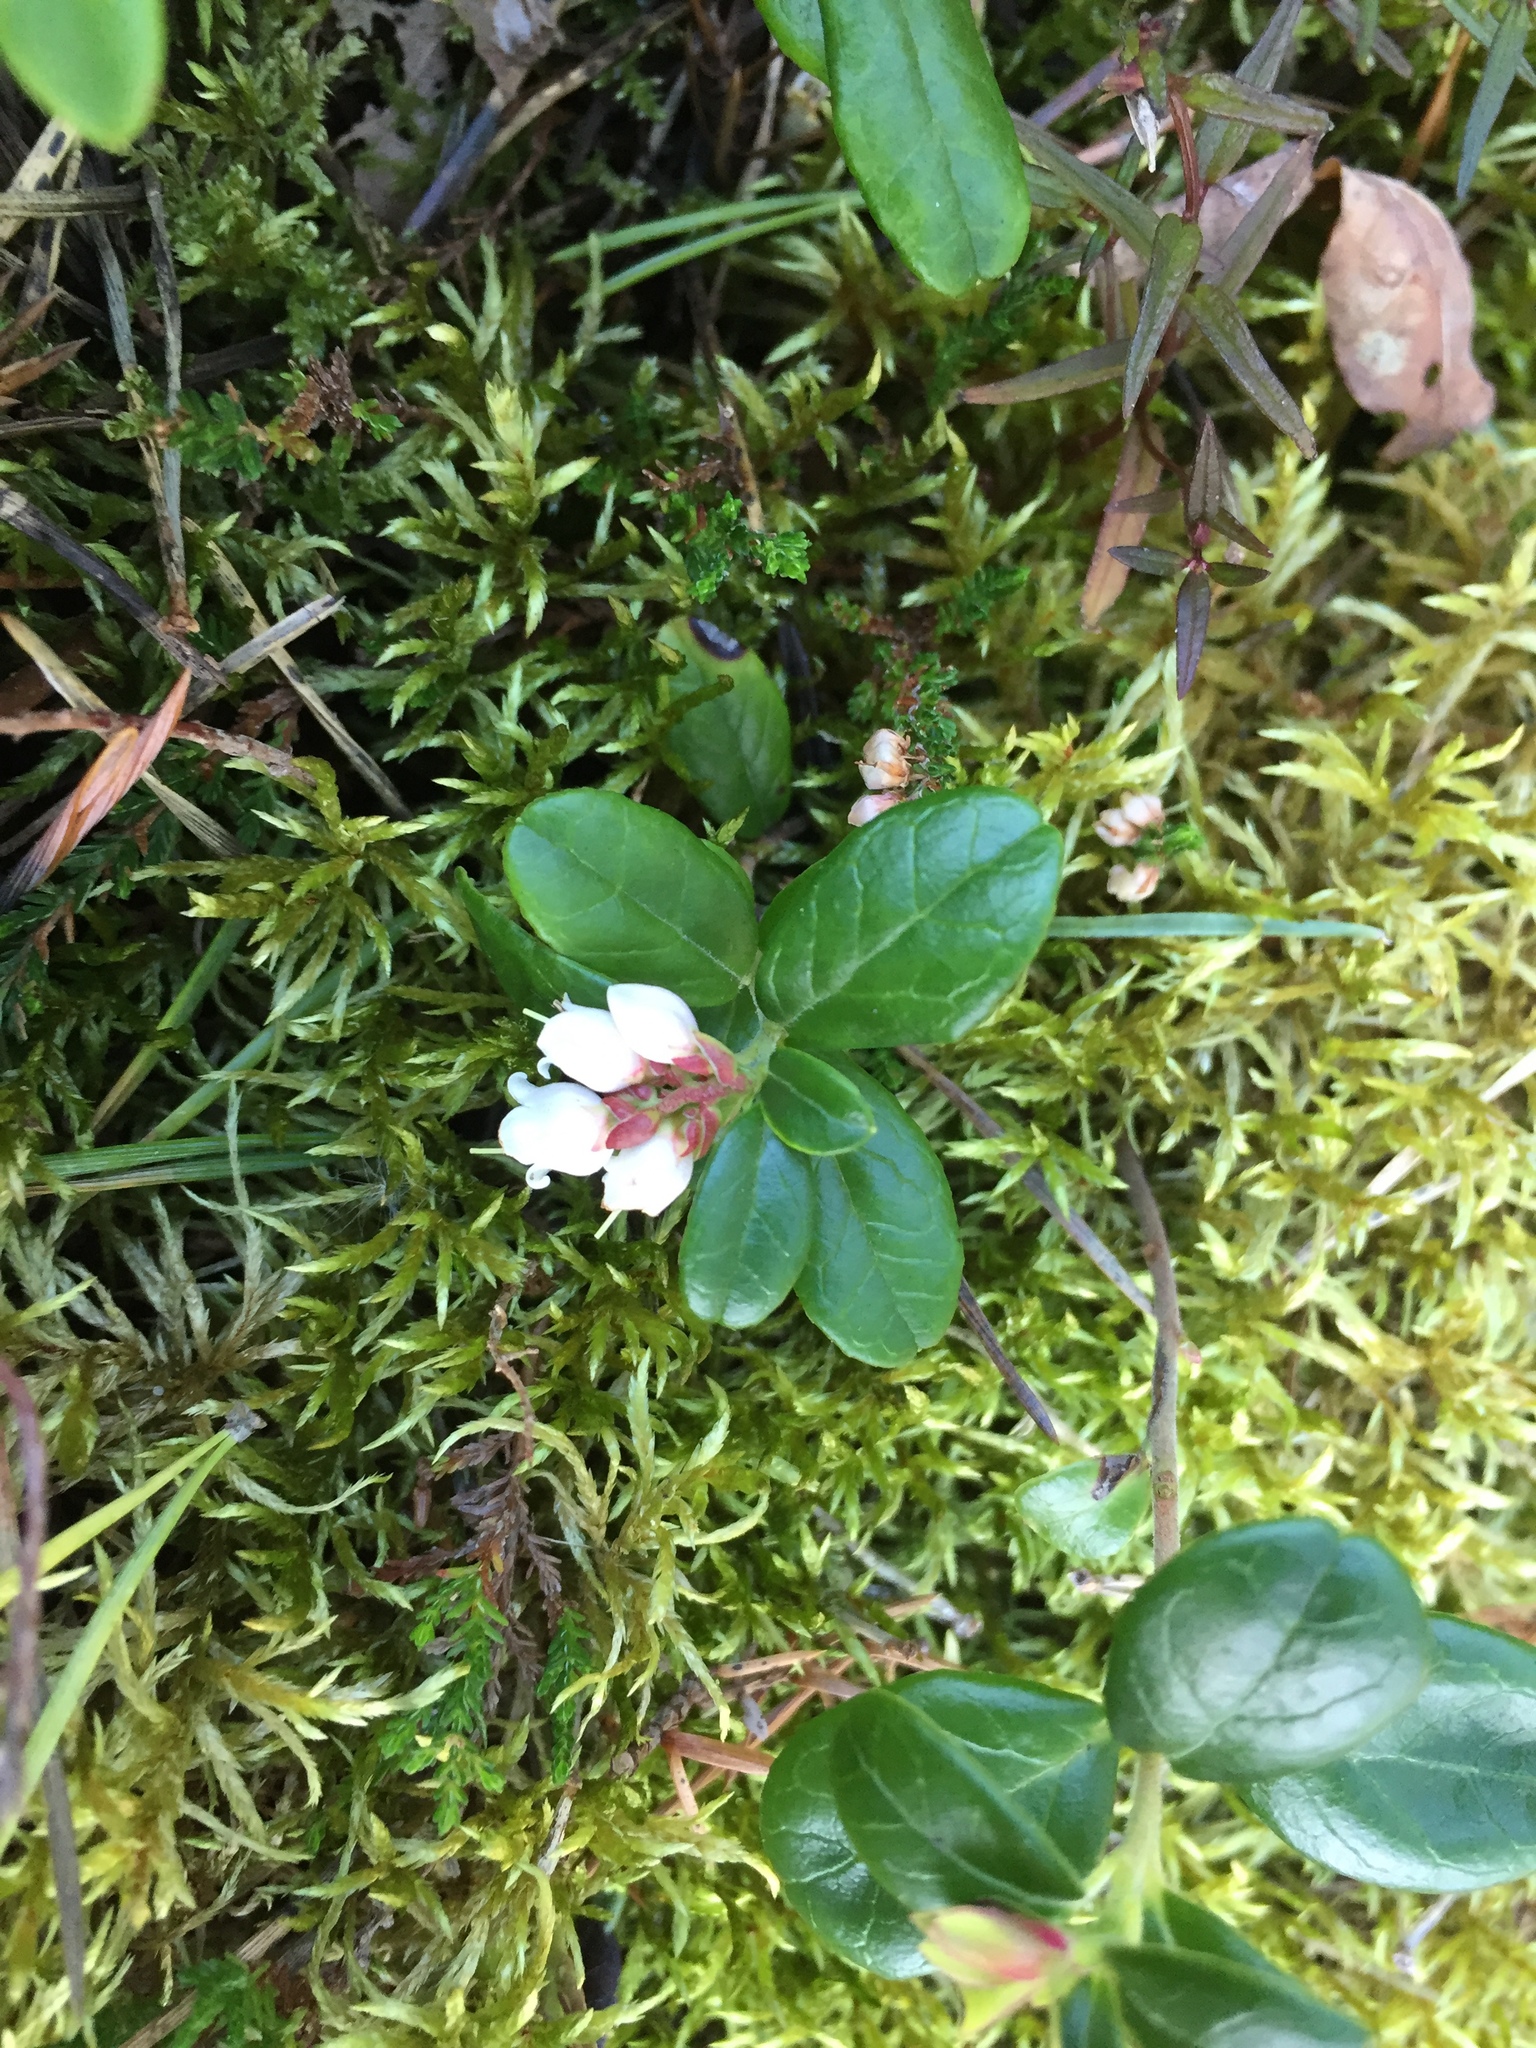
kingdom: Plantae
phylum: Tracheophyta
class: Magnoliopsida
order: Ericales
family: Ericaceae
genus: Vaccinium
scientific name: Vaccinium vitis-idaea
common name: Cowberry
